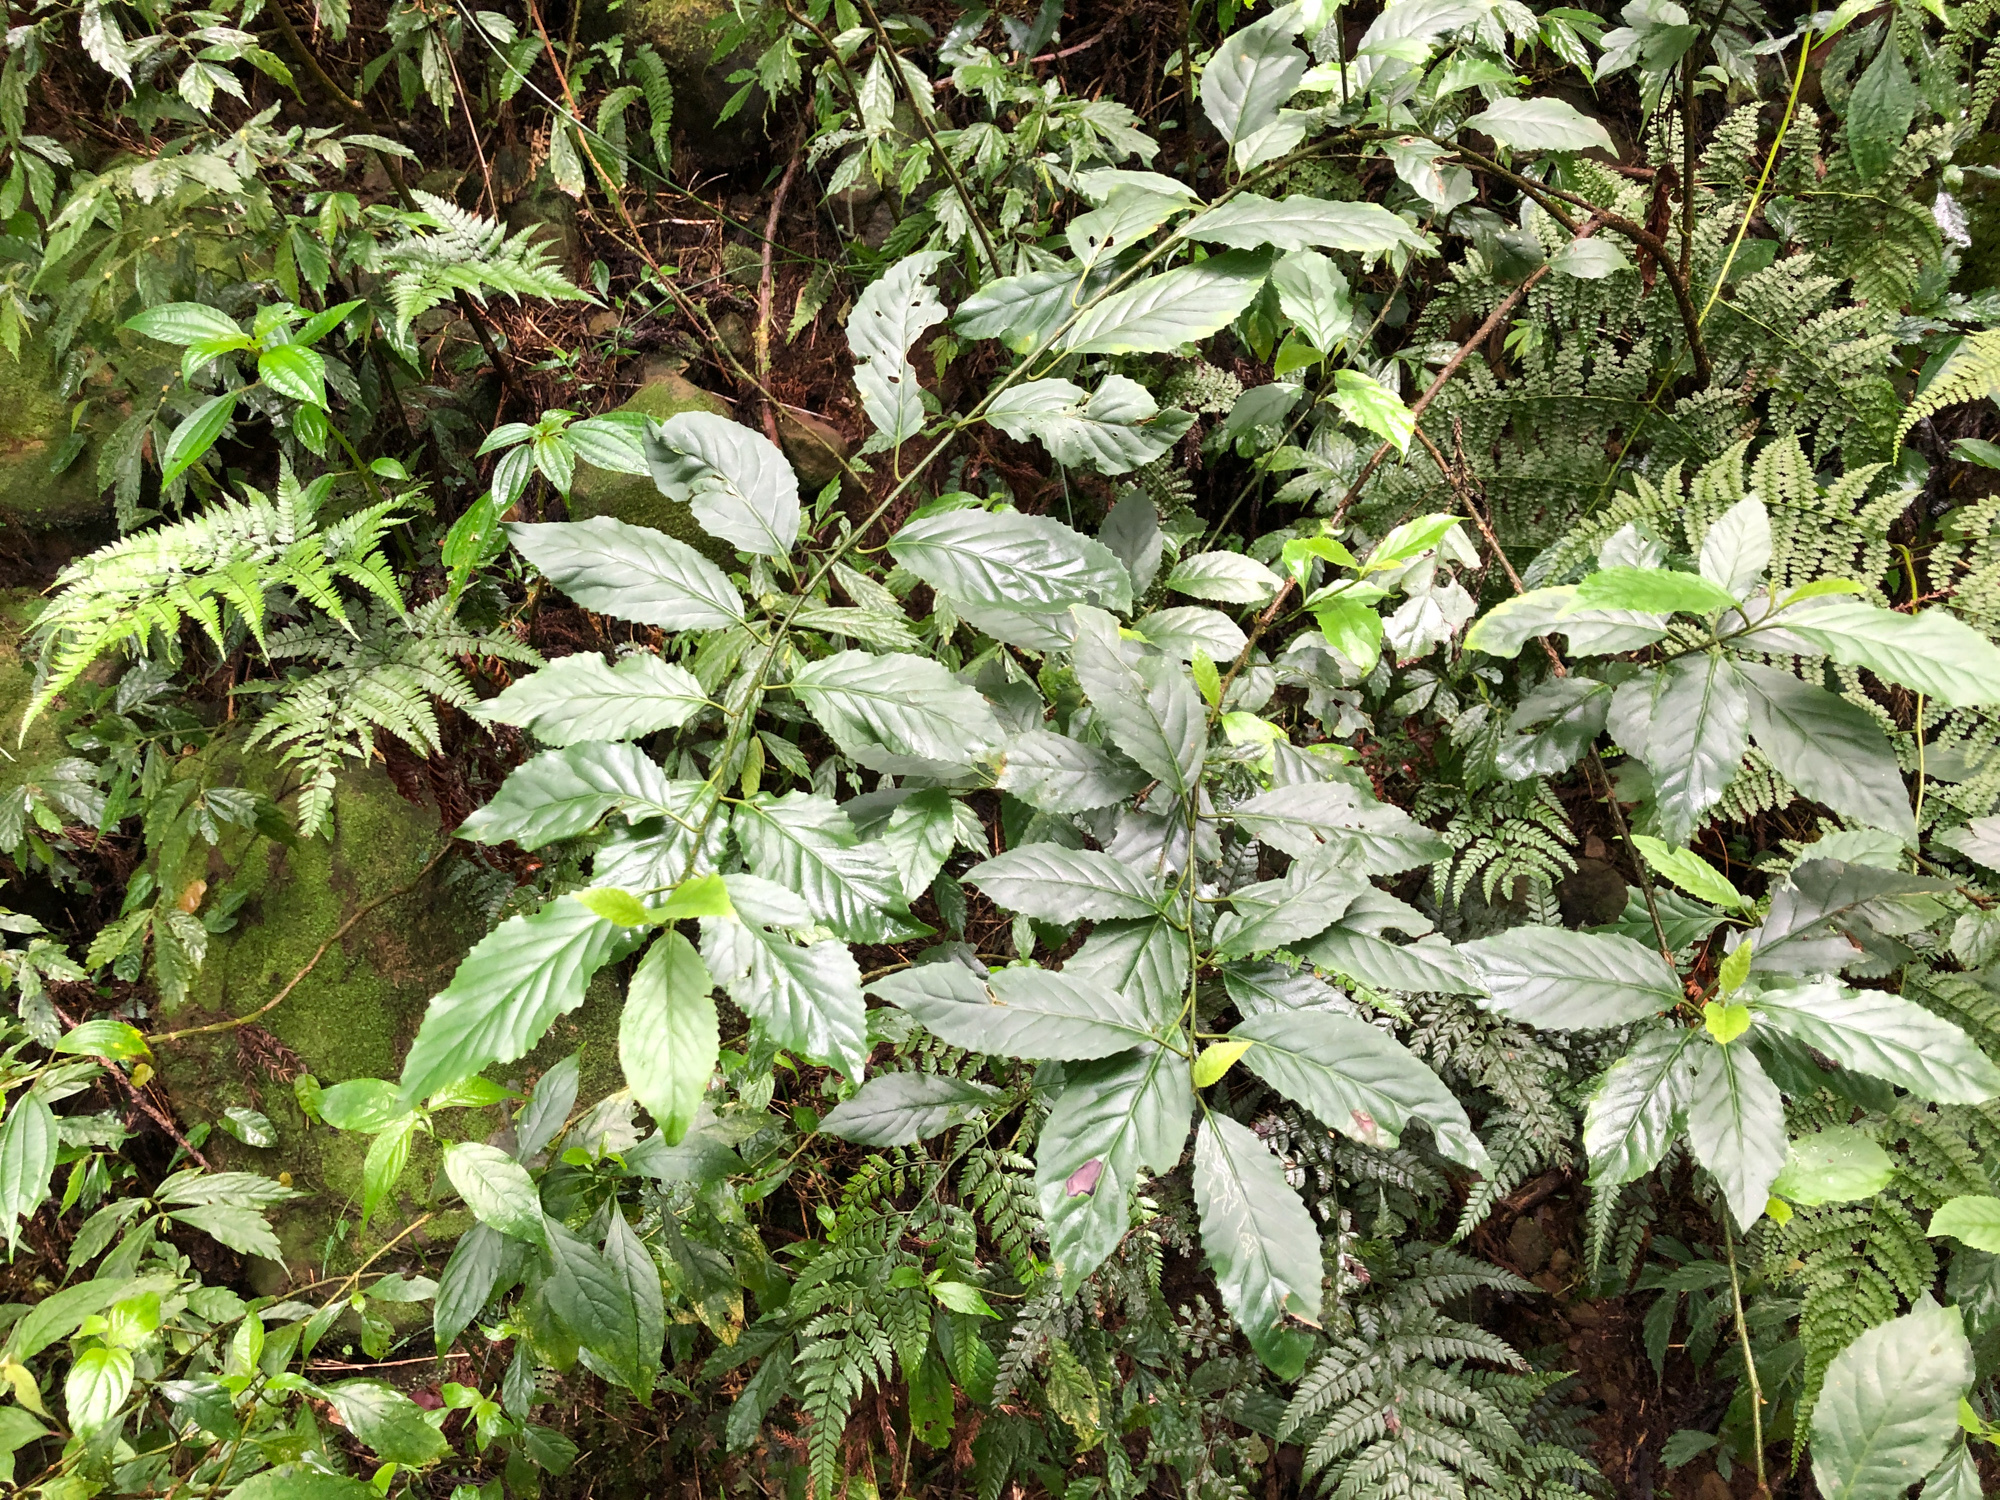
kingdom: Plantae
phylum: Tracheophyta
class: Magnoliopsida
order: Ericales
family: Primulaceae
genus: Maesa
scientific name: Maesa perlaria
